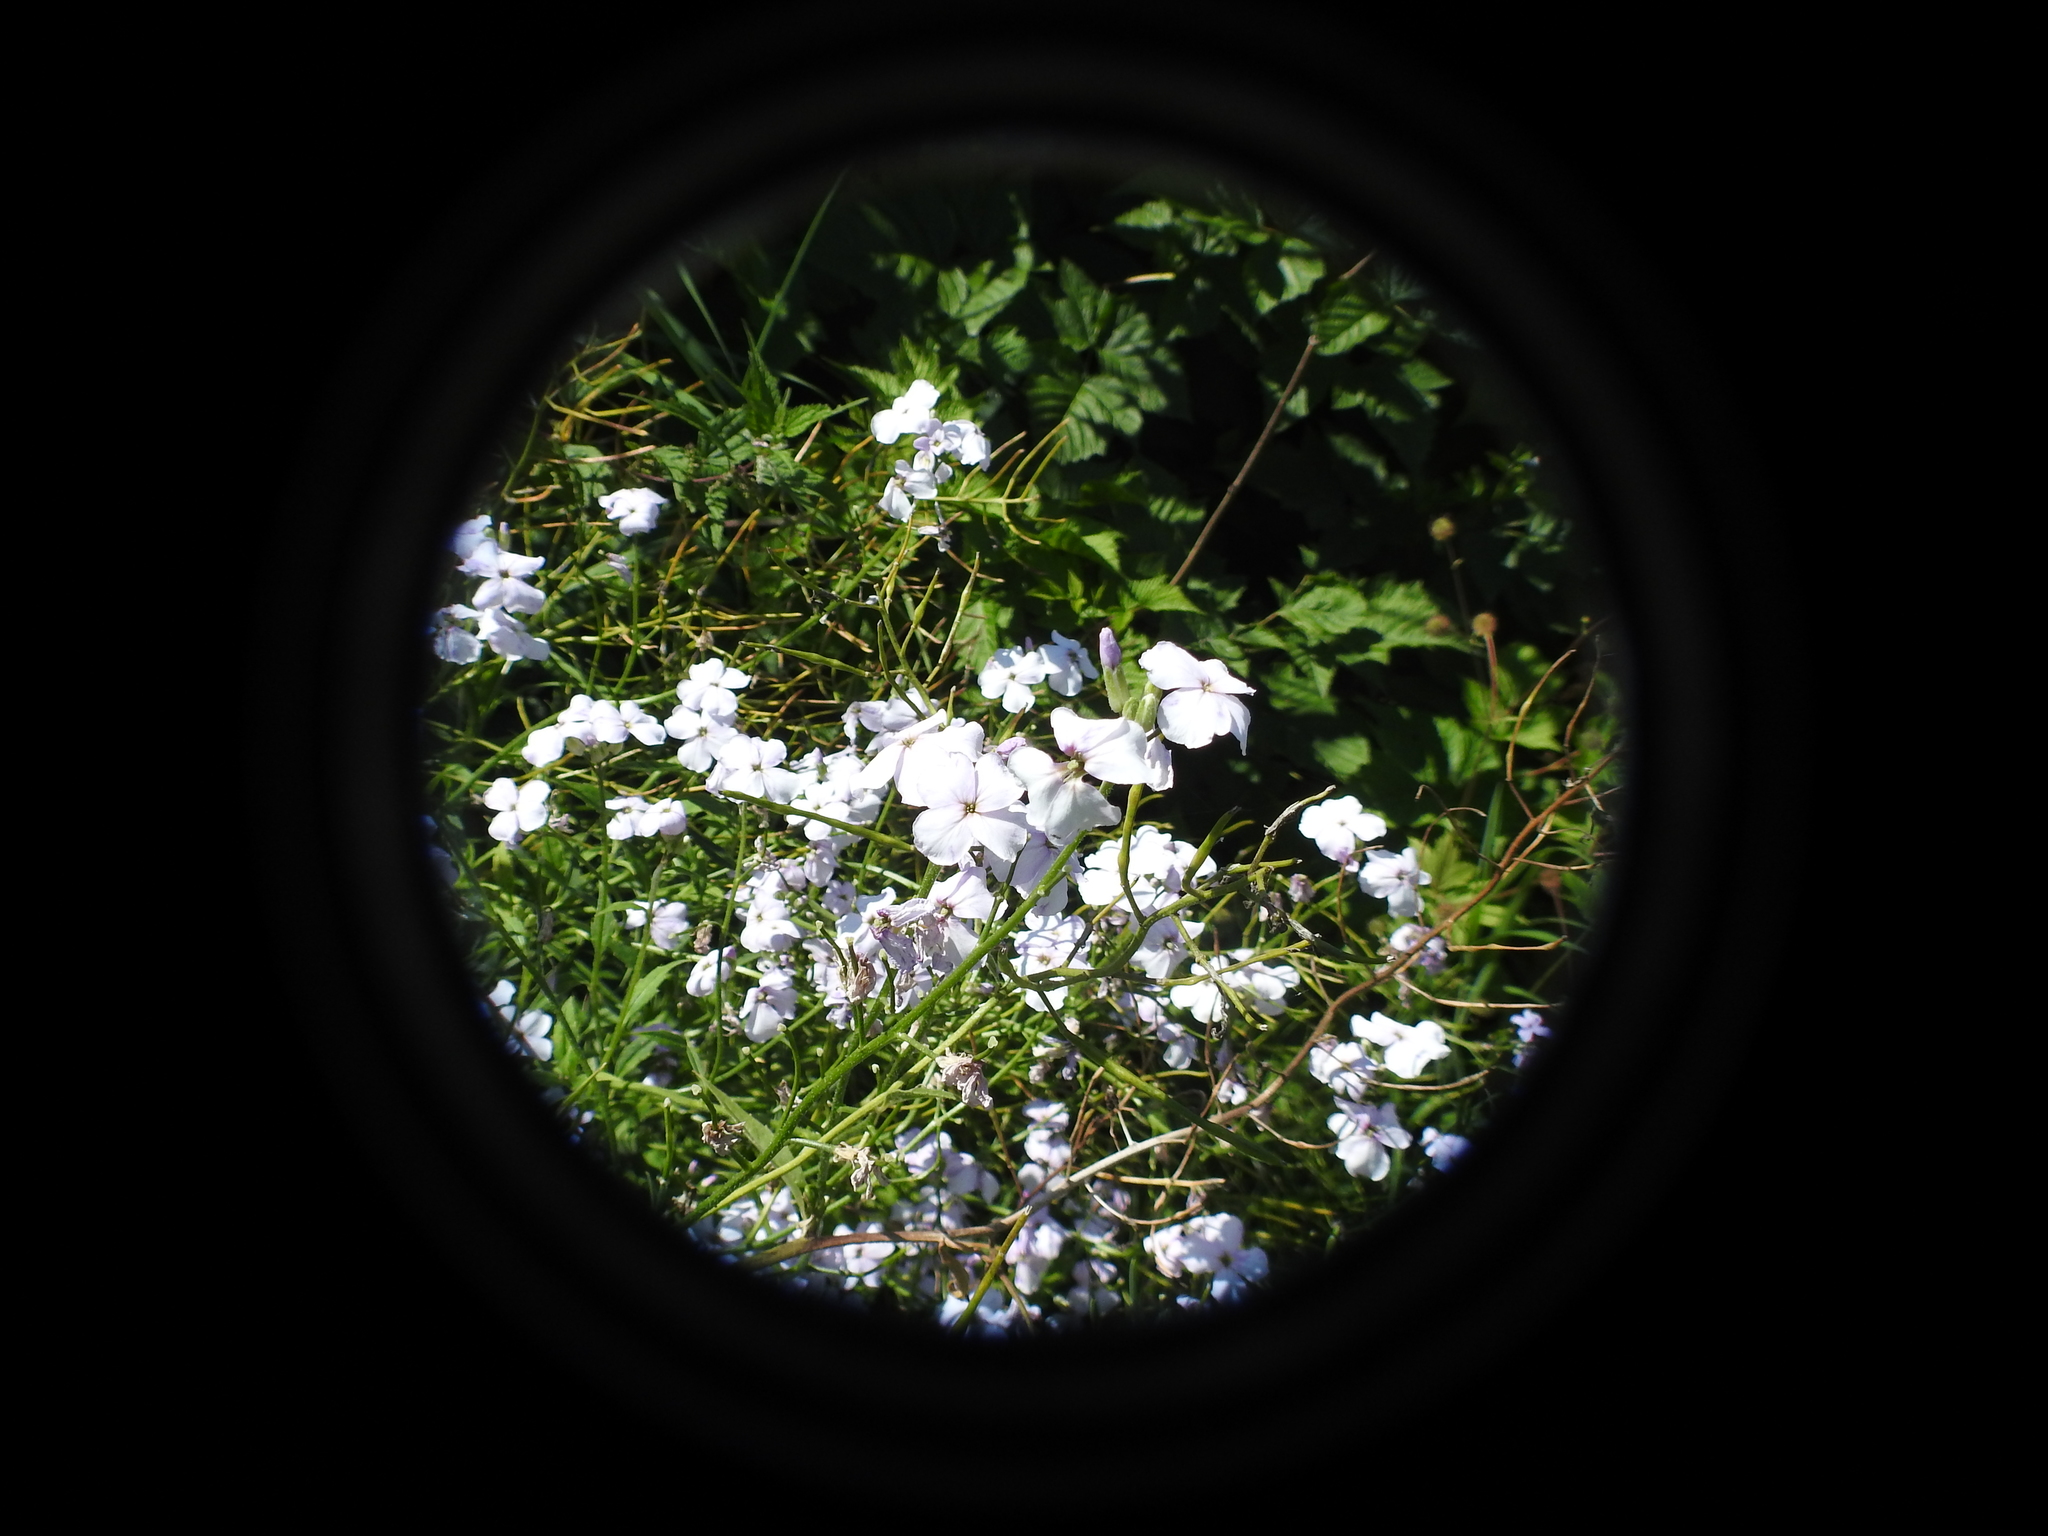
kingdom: Plantae
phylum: Tracheophyta
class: Magnoliopsida
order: Brassicales
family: Brassicaceae
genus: Hesperis
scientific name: Hesperis matronalis
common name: Dame's-violet
